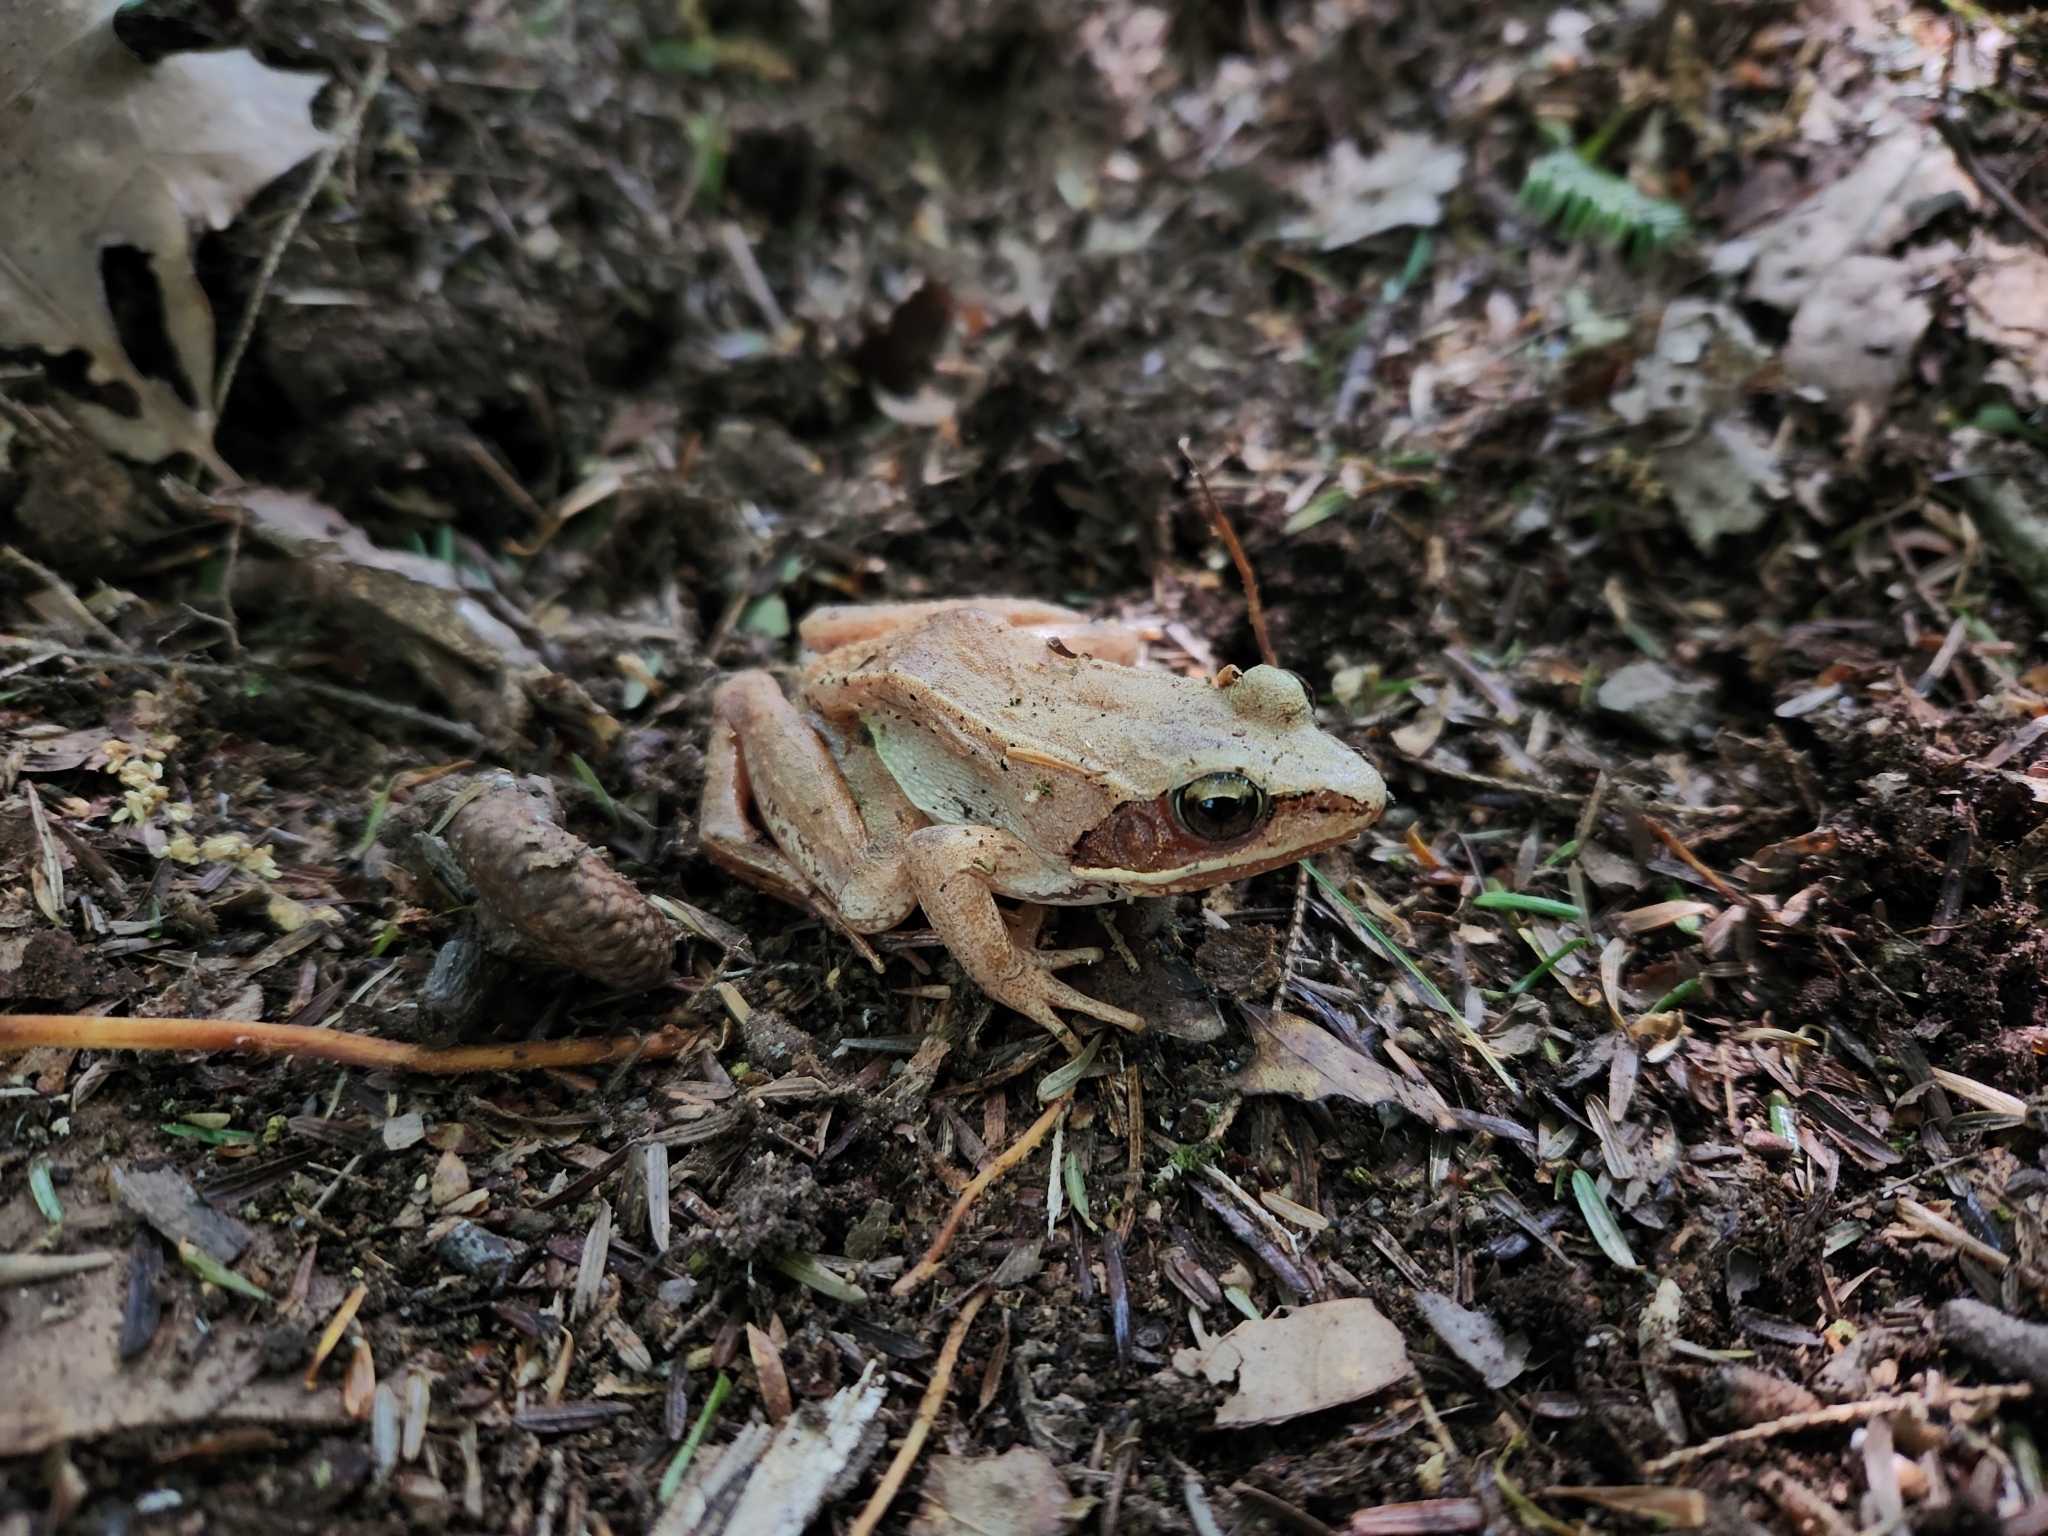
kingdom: Animalia
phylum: Chordata
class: Amphibia
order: Anura
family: Ranidae
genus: Lithobates
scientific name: Lithobates sylvaticus
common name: Wood frog
